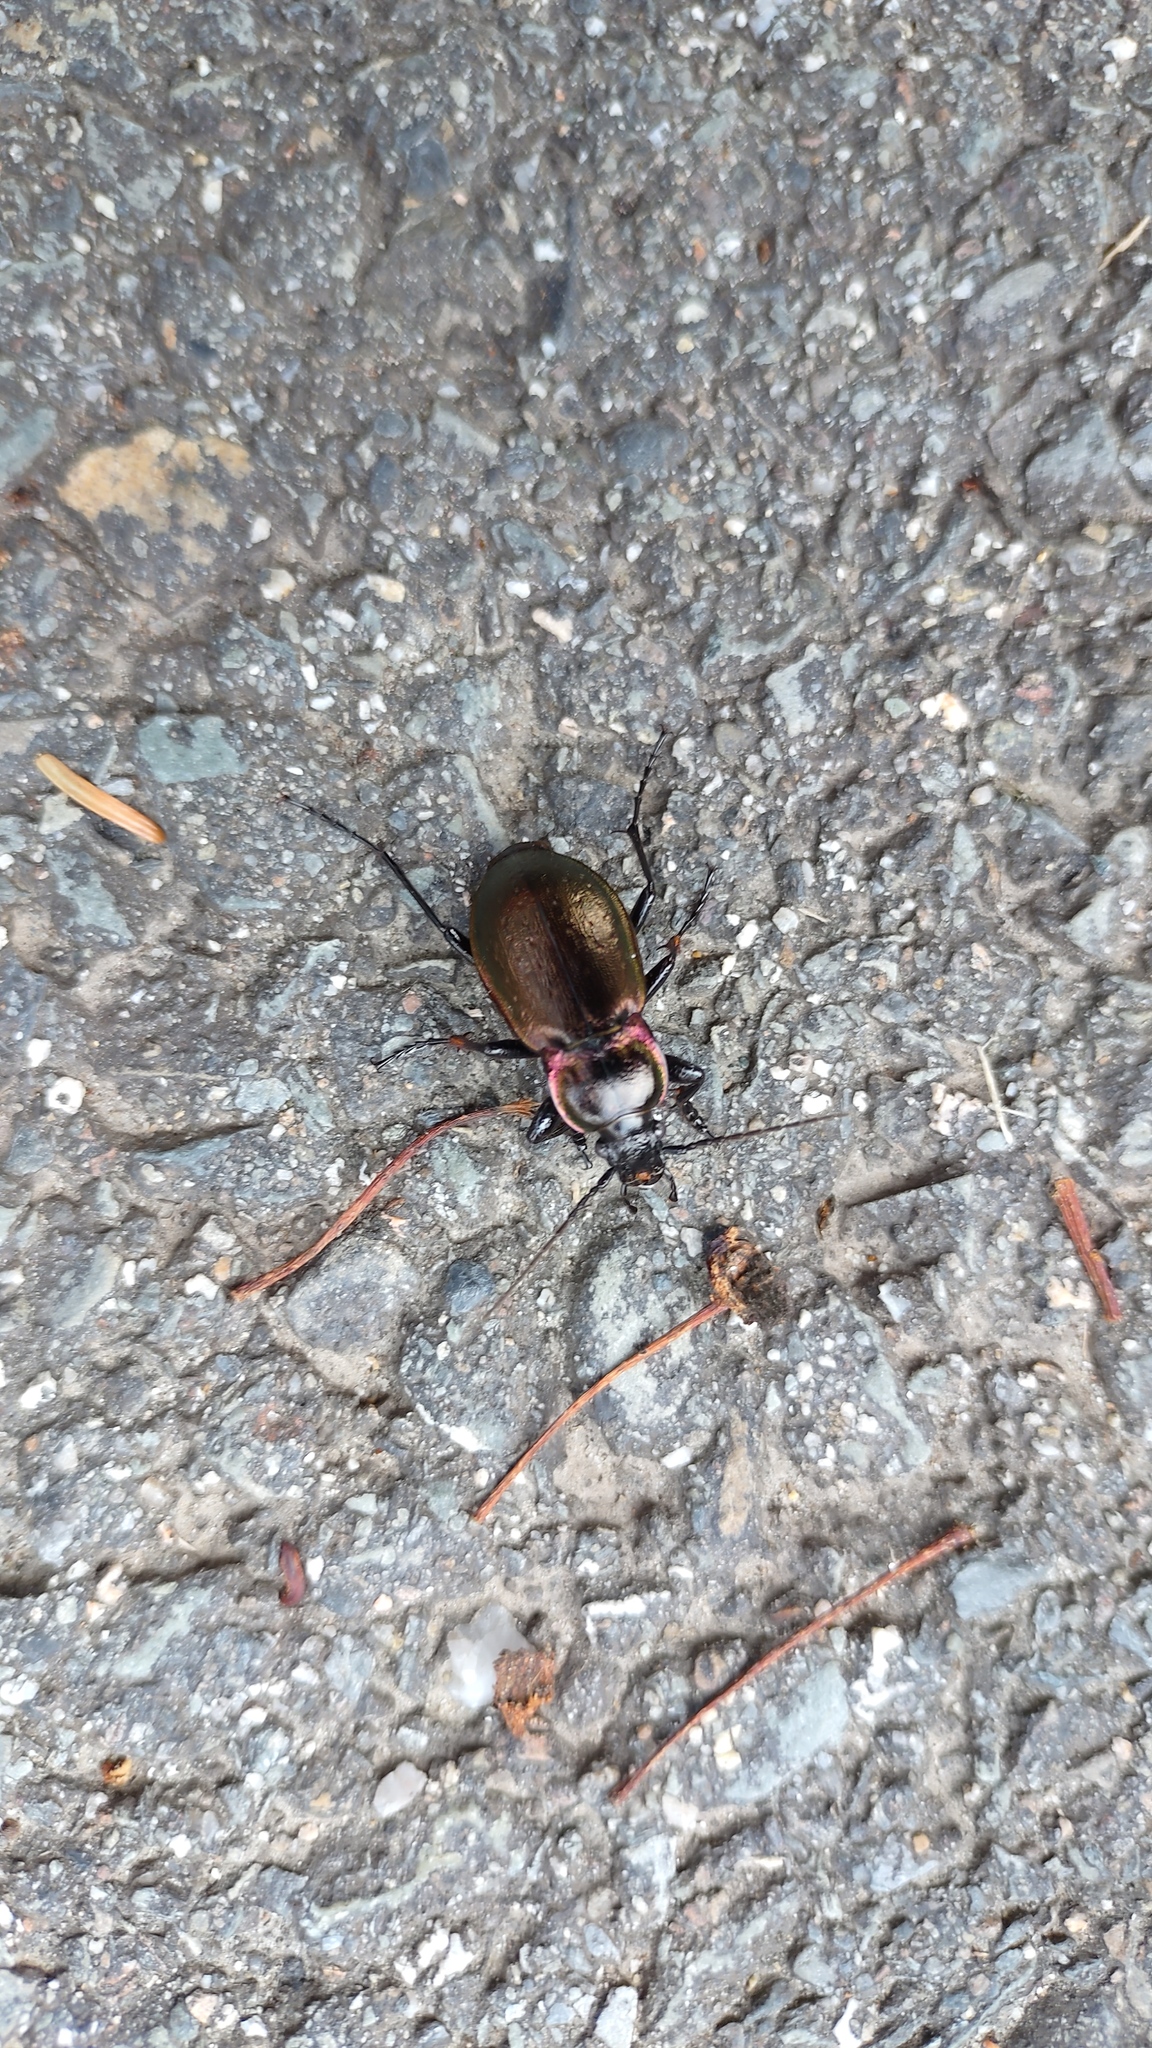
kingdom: Animalia
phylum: Arthropoda
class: Insecta
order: Coleoptera
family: Carabidae
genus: Carabus
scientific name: Carabus nemoralis
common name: European ground beetle
